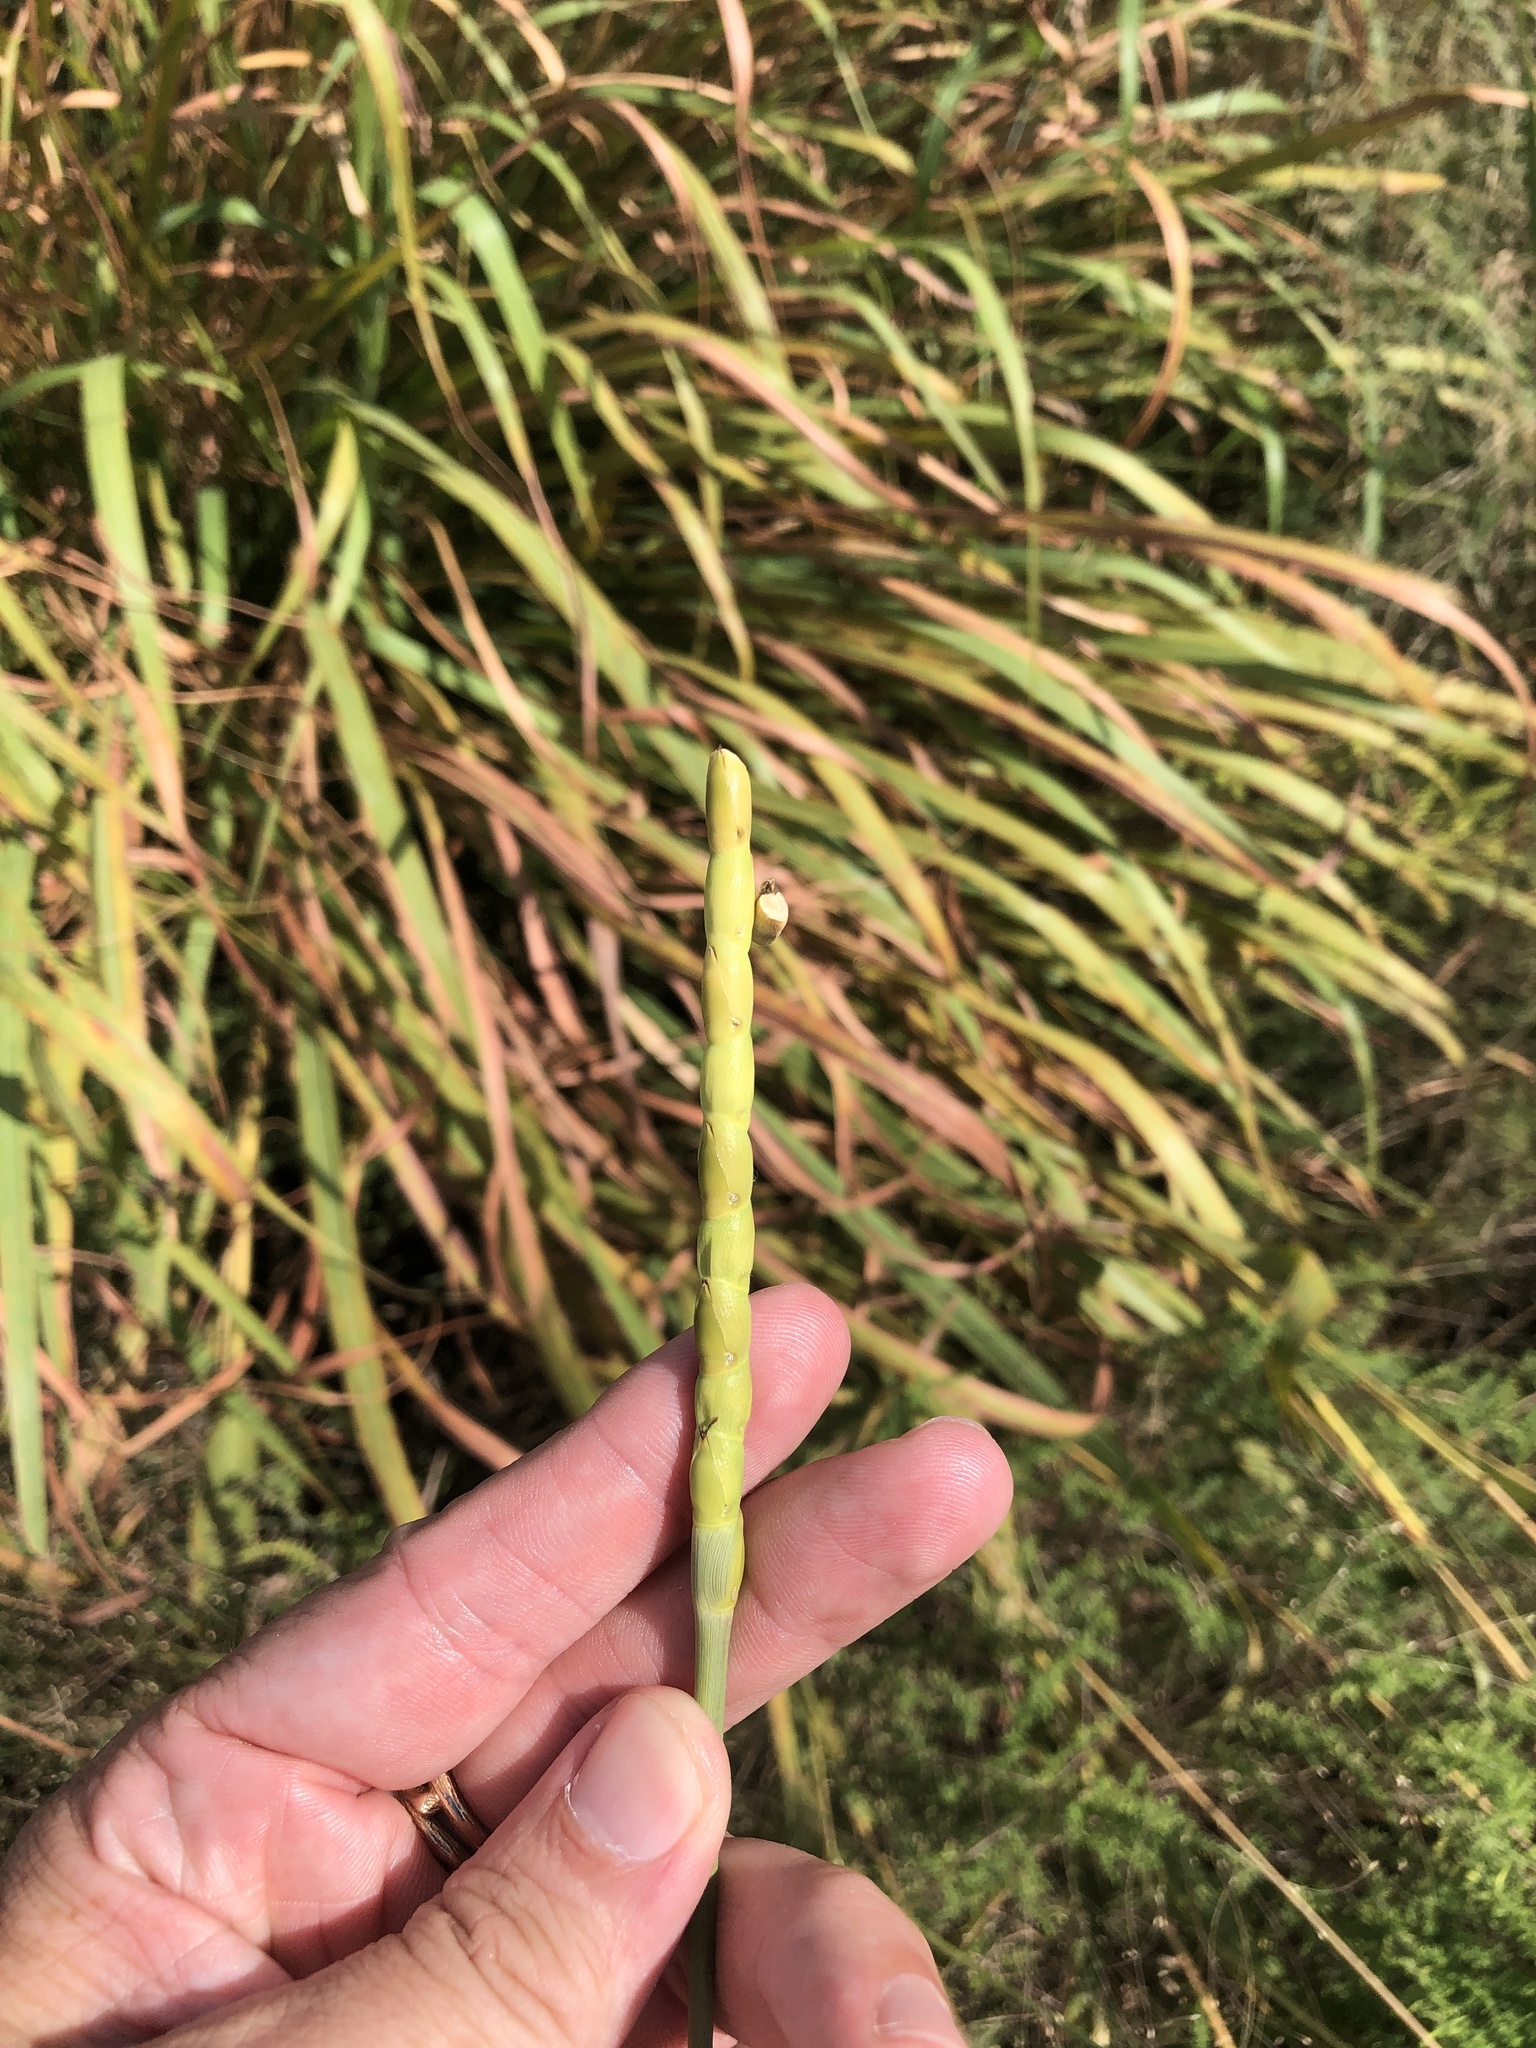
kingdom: Plantae
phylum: Tracheophyta
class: Liliopsida
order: Poales
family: Poaceae
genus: Tripsacum
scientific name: Tripsacum dactyloides
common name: Buffalo-grass
